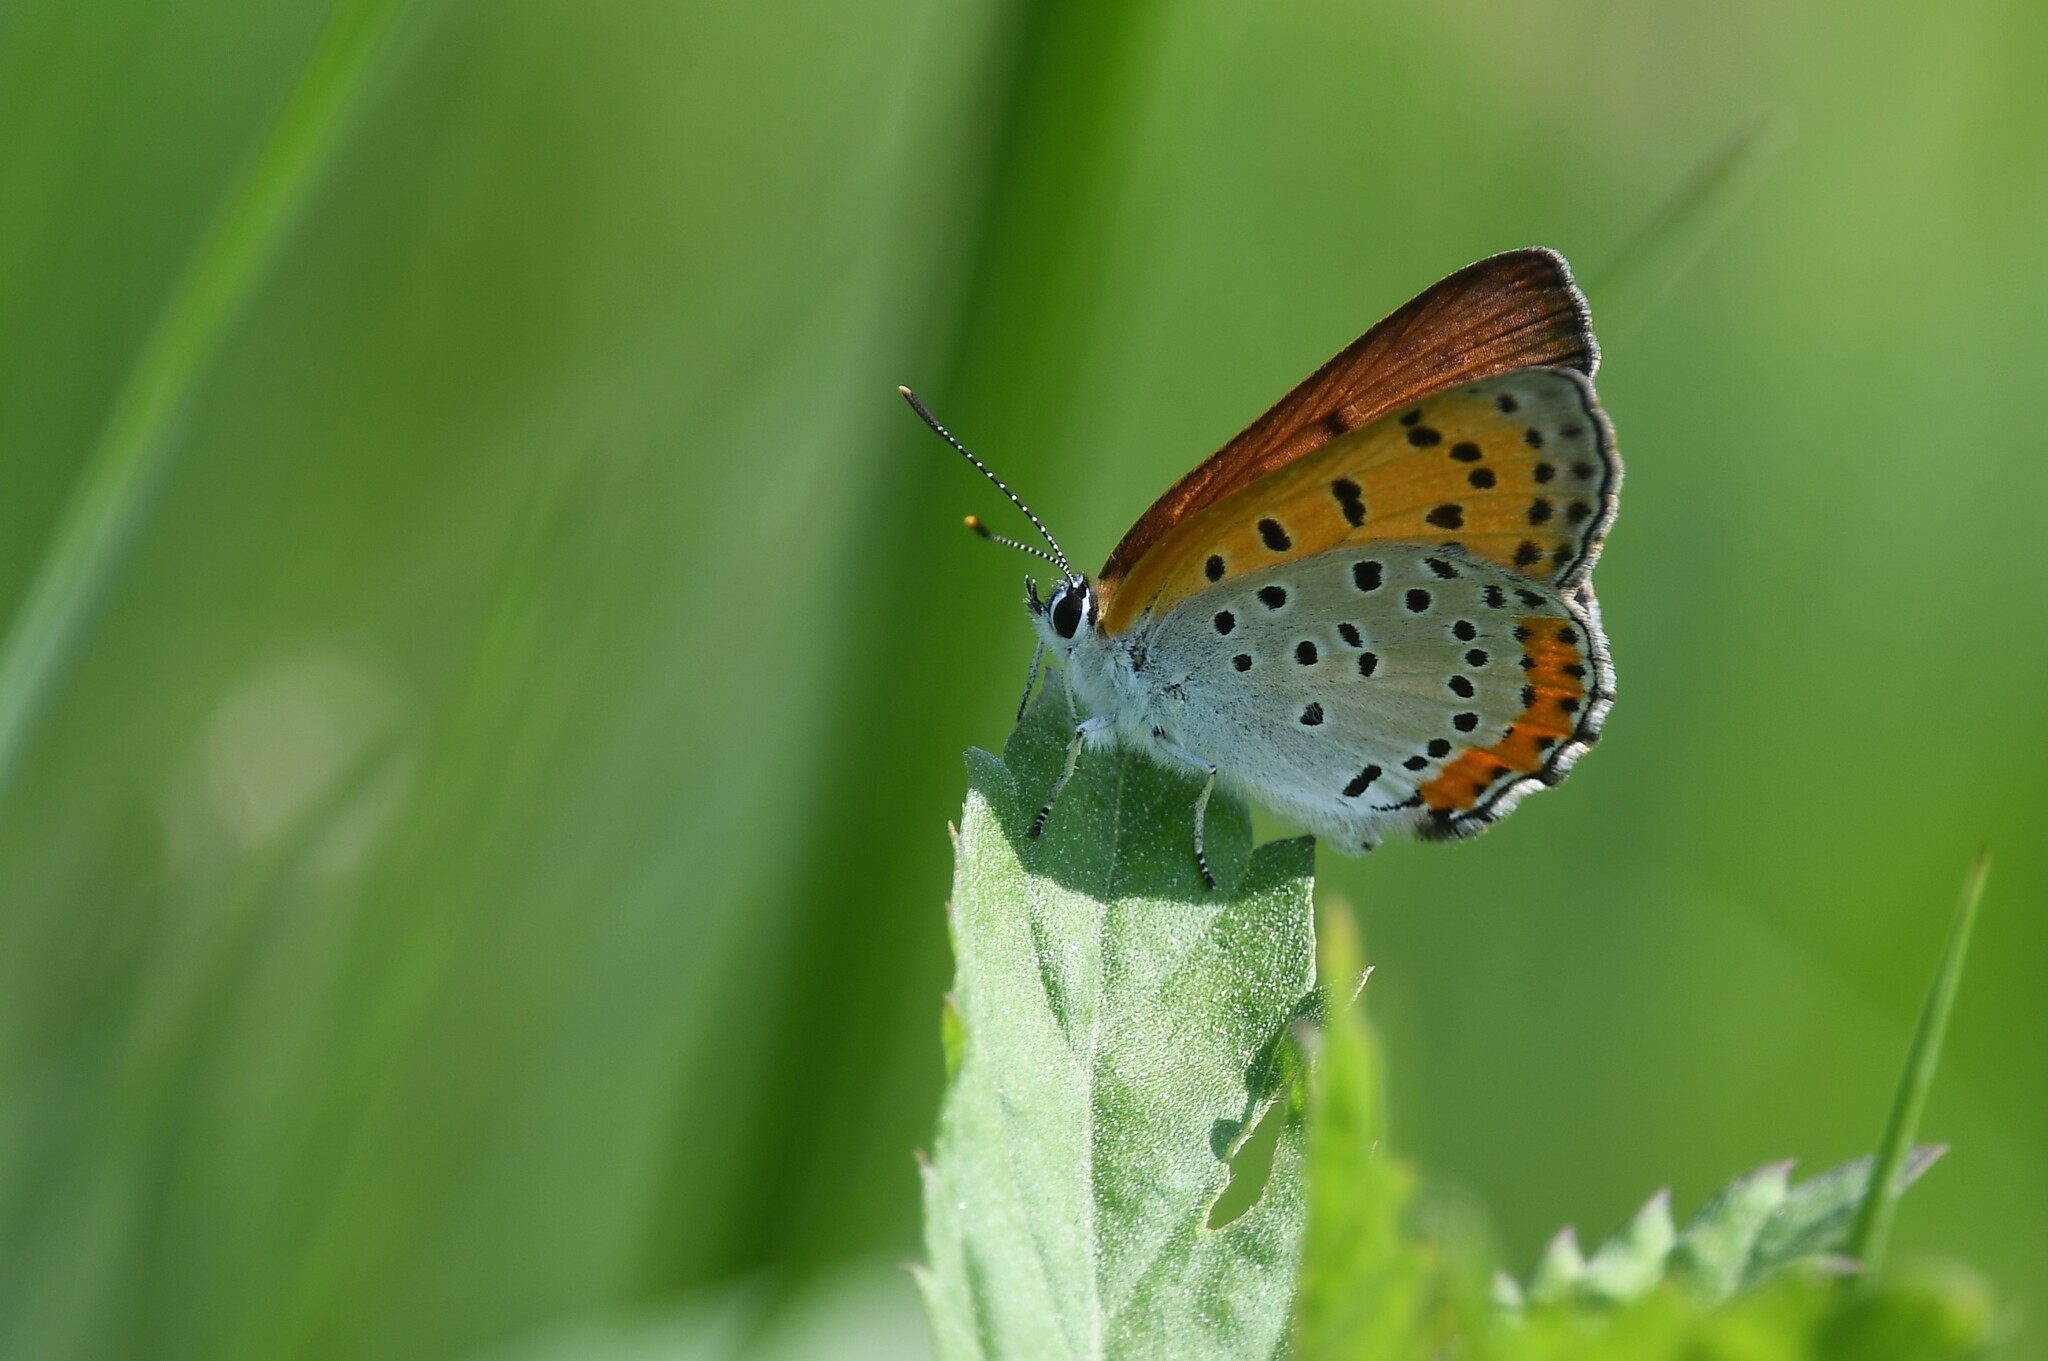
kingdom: Animalia
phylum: Arthropoda
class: Insecta
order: Lepidoptera
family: Lycaenidae
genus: Tharsalea
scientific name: Tharsalea hyllus
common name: Bronze copper
